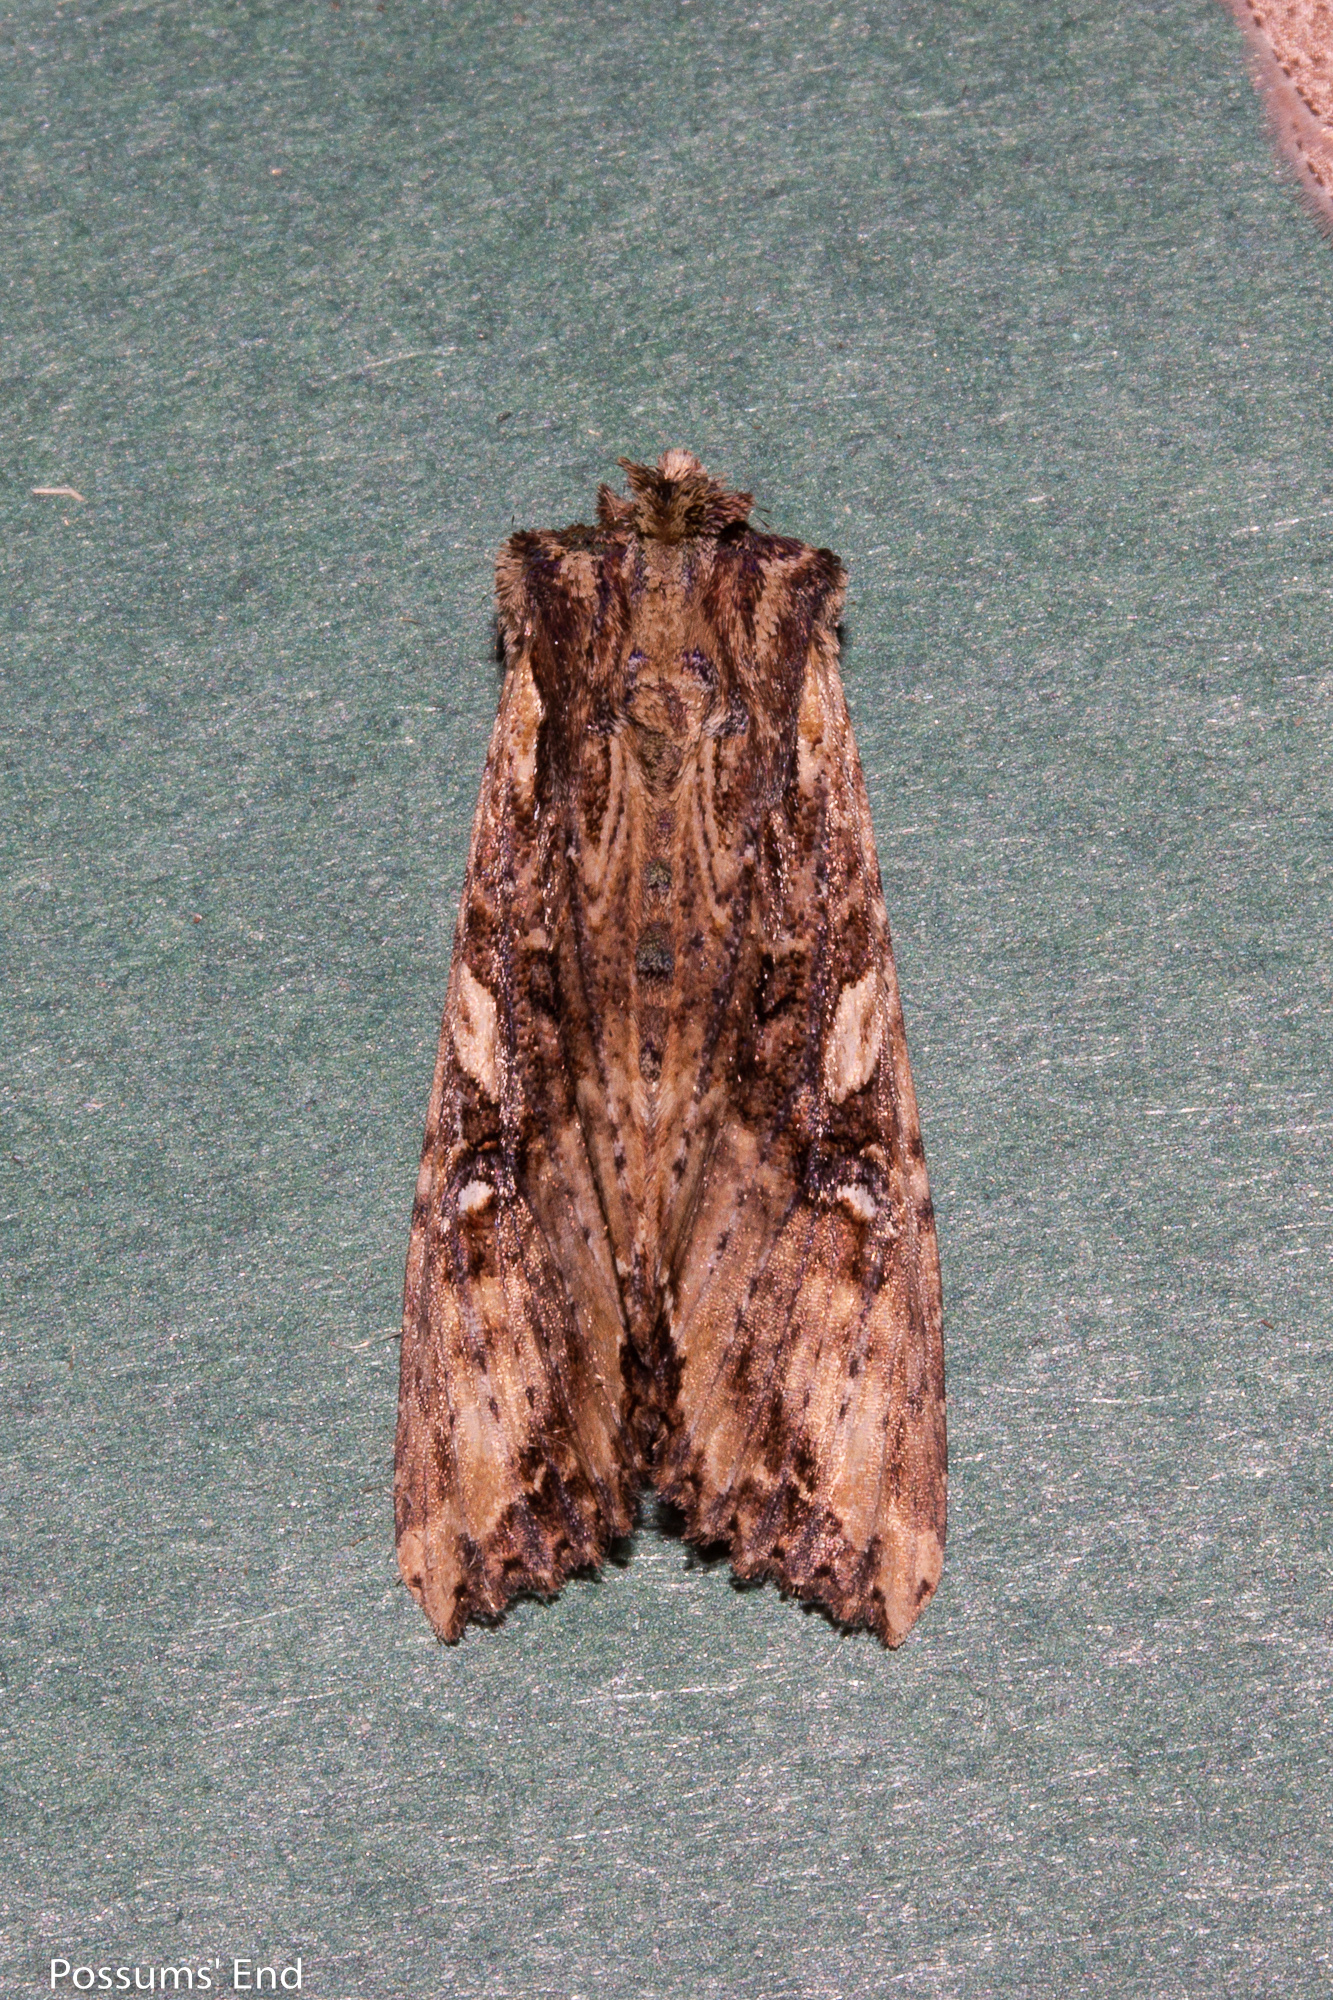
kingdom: Animalia
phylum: Arthropoda
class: Insecta
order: Lepidoptera
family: Noctuidae
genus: Meterana
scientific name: Meterana stipata
